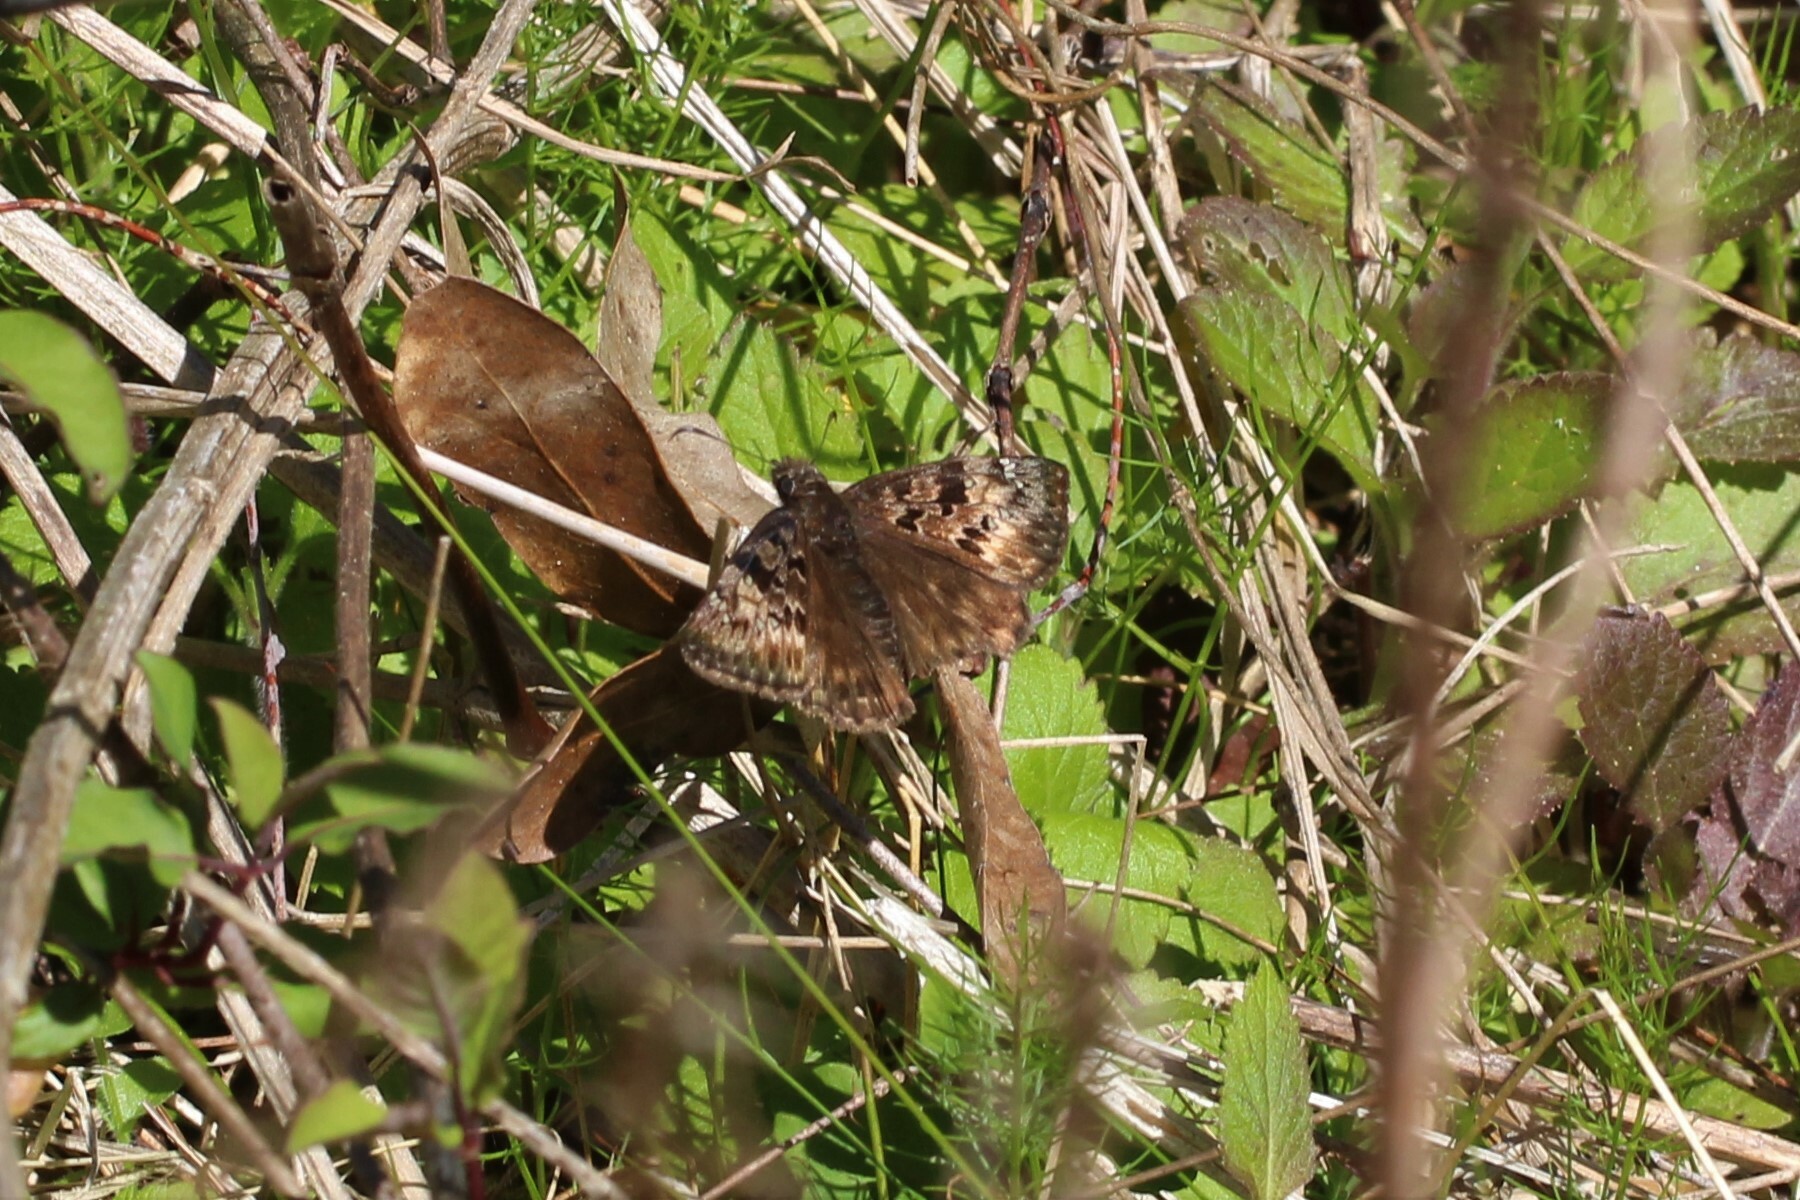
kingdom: Animalia
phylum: Arthropoda
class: Insecta
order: Lepidoptera
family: Hesperiidae
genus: Erynnis
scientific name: Erynnis horatius
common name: Horace's duskywing
